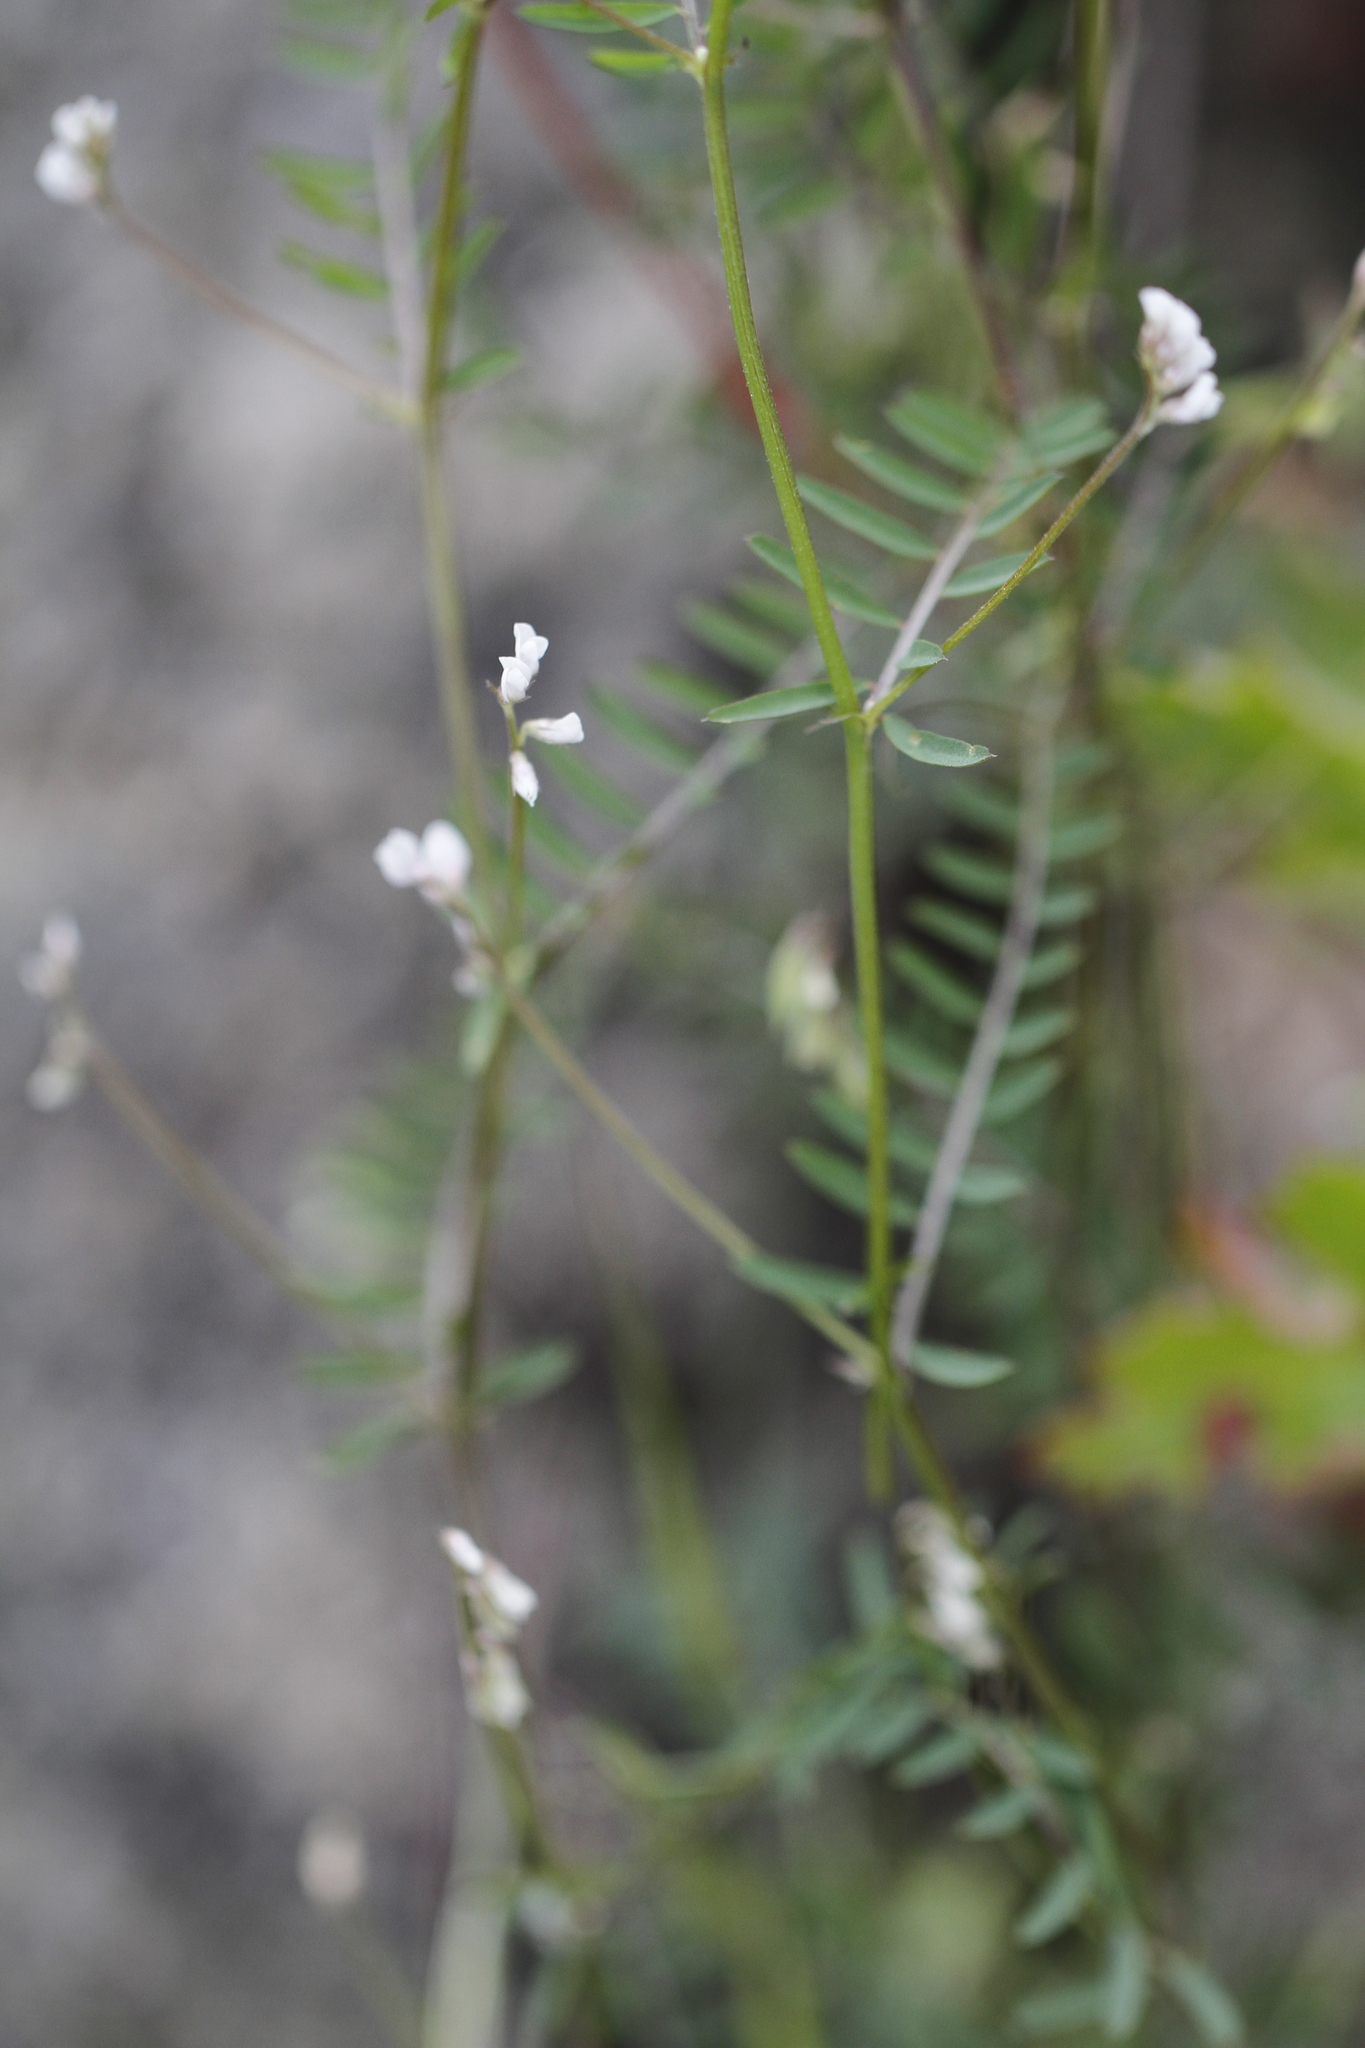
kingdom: Plantae
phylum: Tracheophyta
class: Magnoliopsida
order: Fabales
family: Fabaceae
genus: Vicia
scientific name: Vicia hirsuta
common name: Tiny vetch
